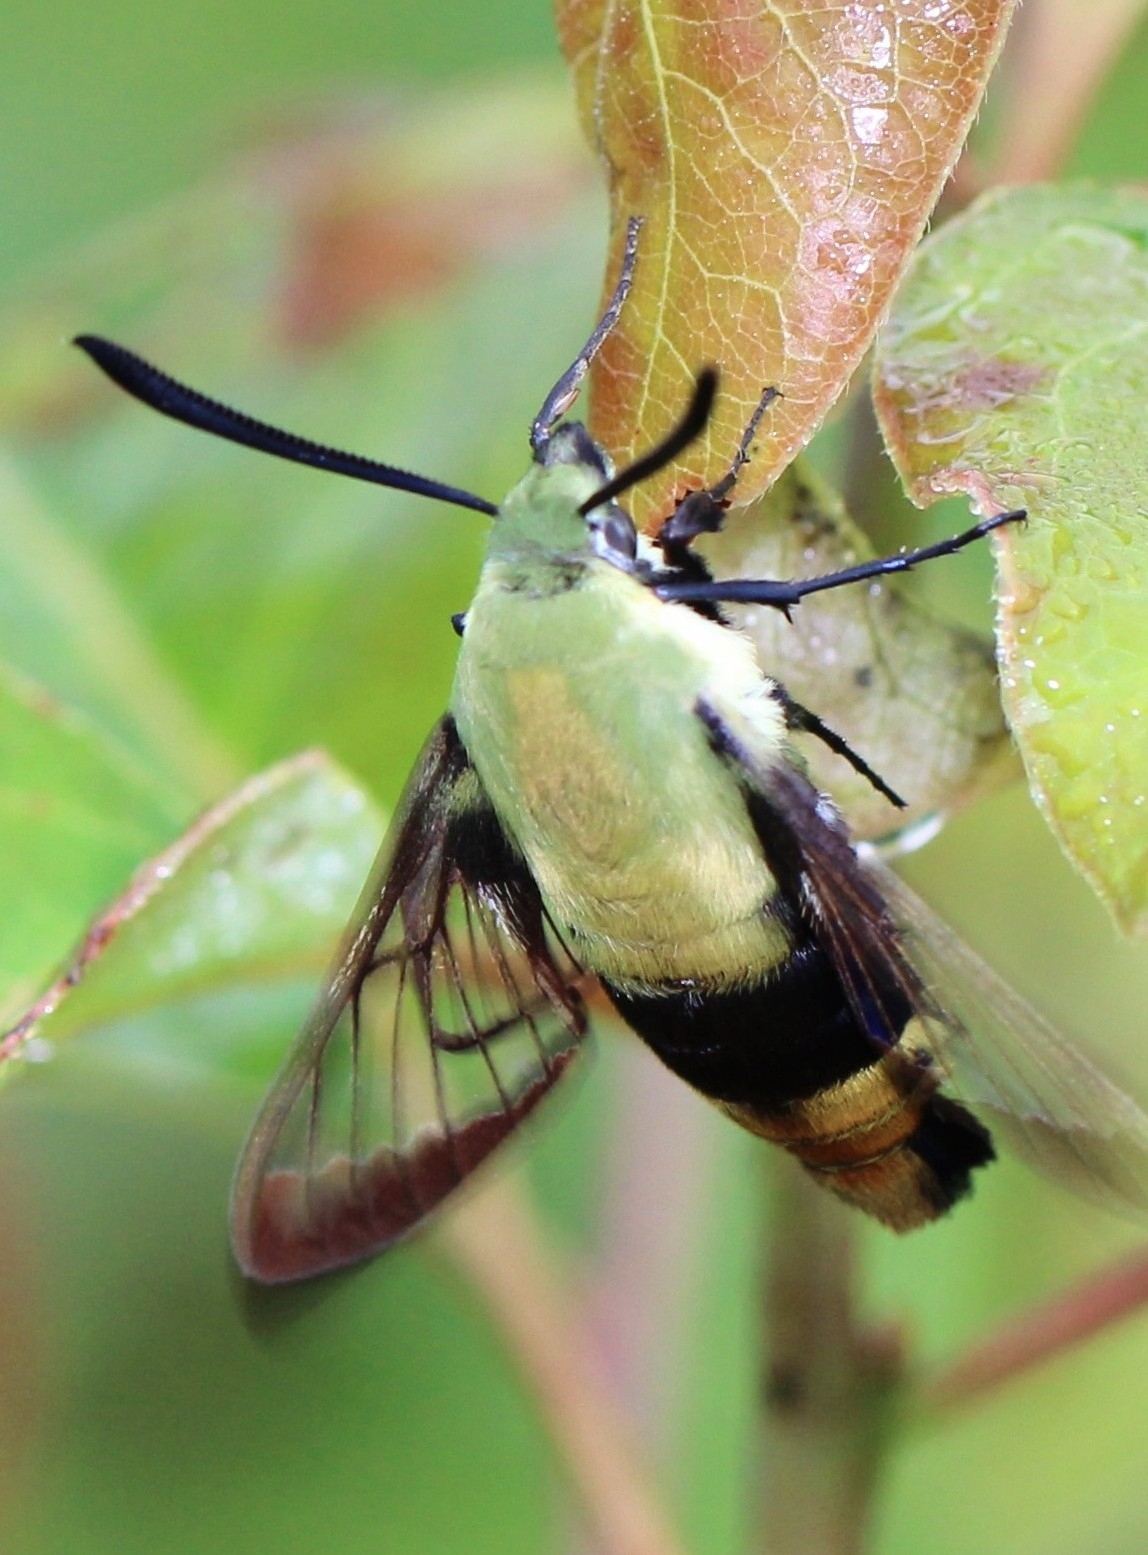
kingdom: Animalia
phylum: Arthropoda
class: Insecta
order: Lepidoptera
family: Sphingidae
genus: Hemaris
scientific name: Hemaris diffinis
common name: Bumblebee moth
